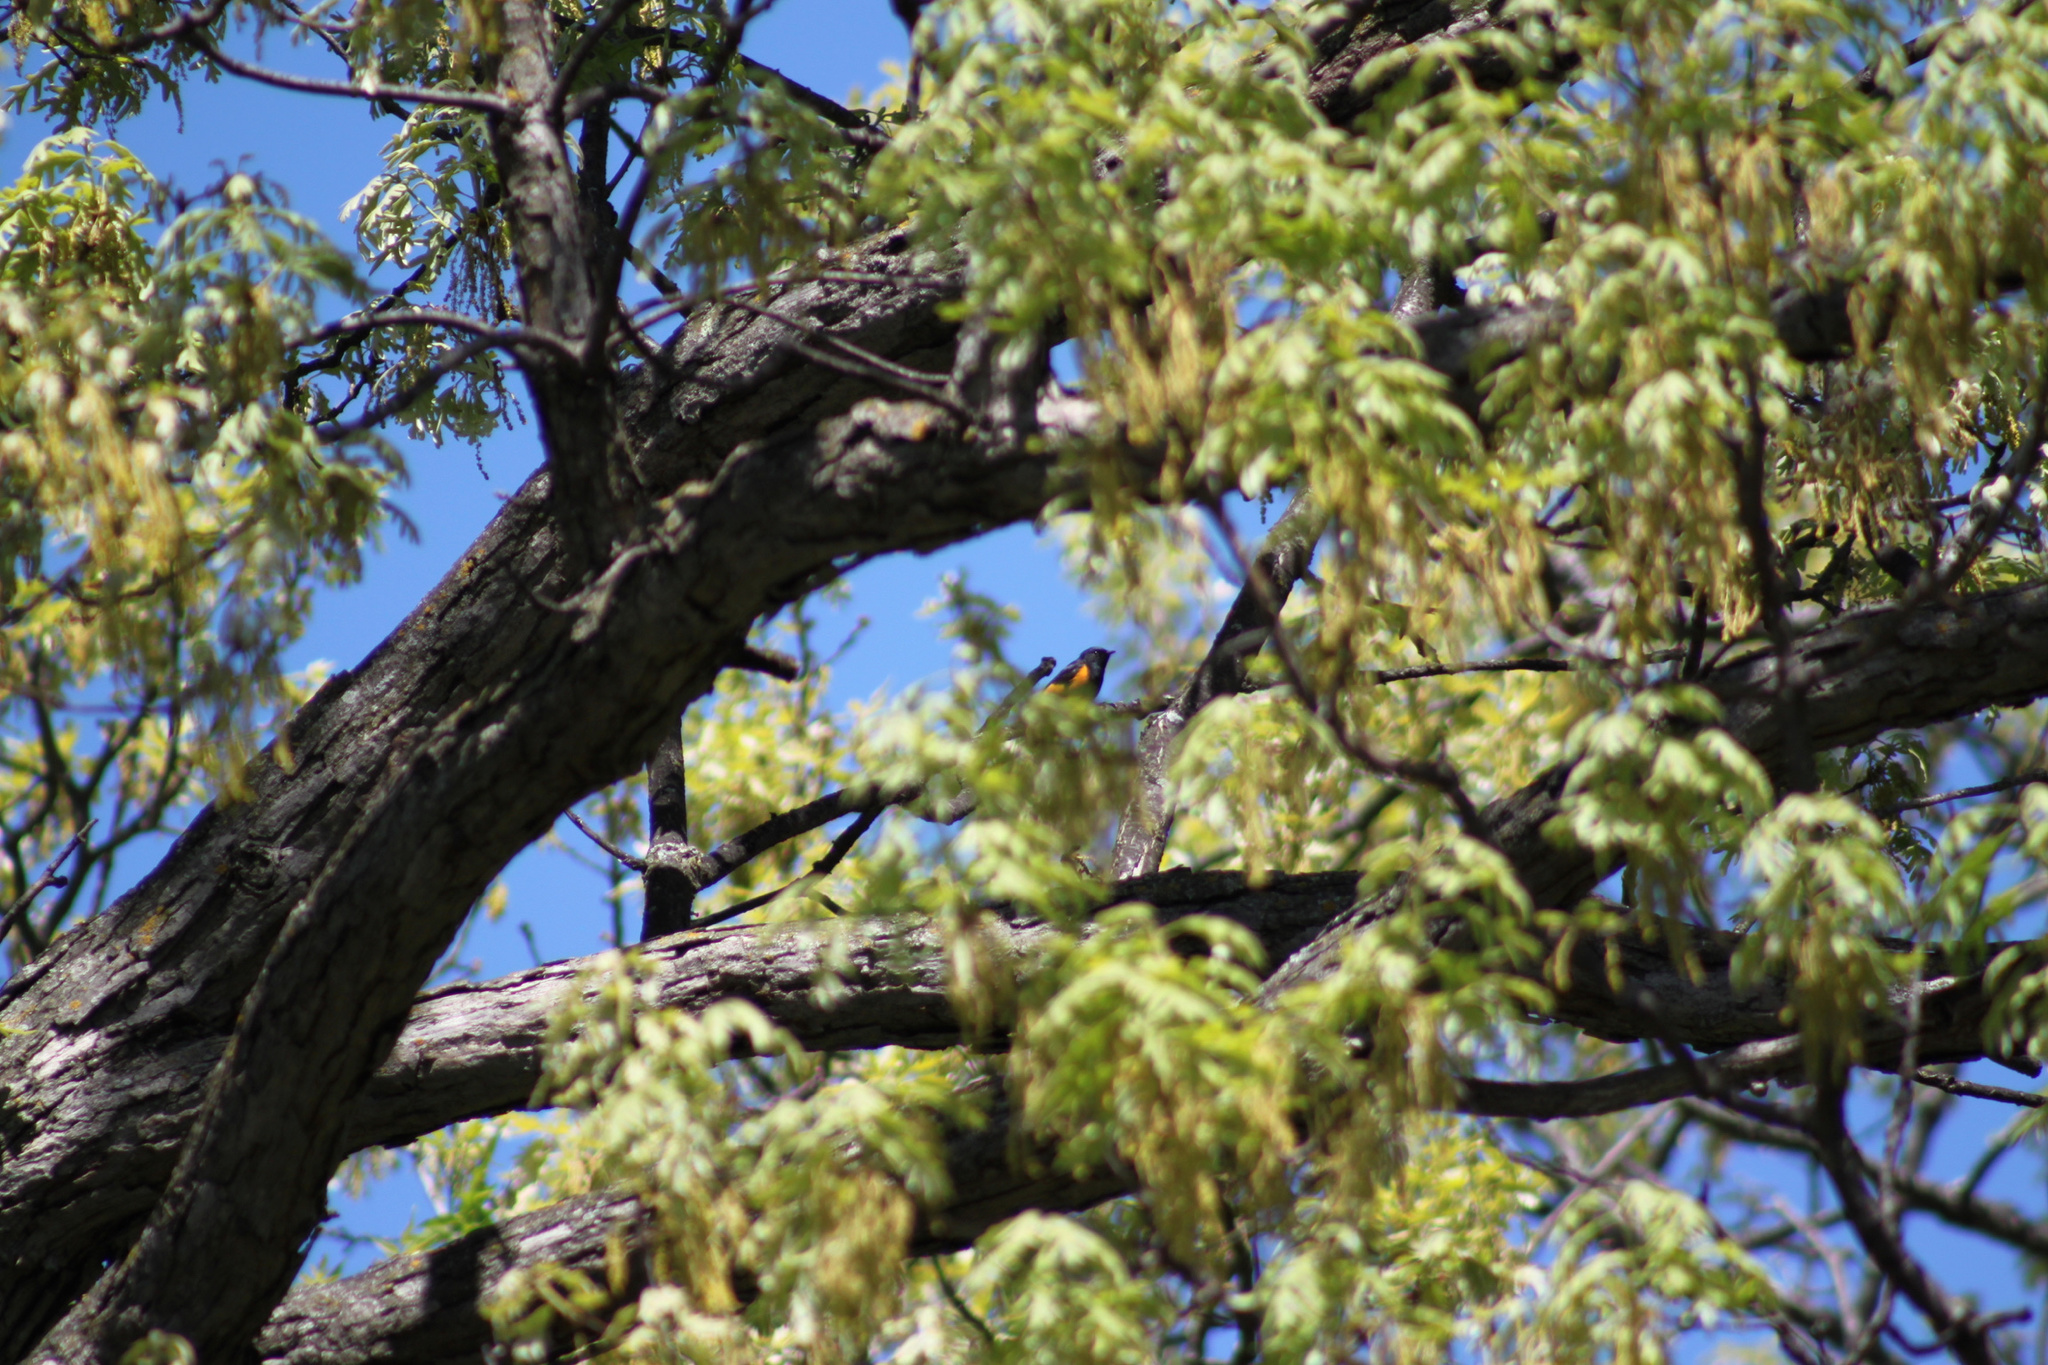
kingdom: Animalia
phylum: Chordata
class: Aves
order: Passeriformes
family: Parulidae
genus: Setophaga
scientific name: Setophaga ruticilla
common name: American redstart
